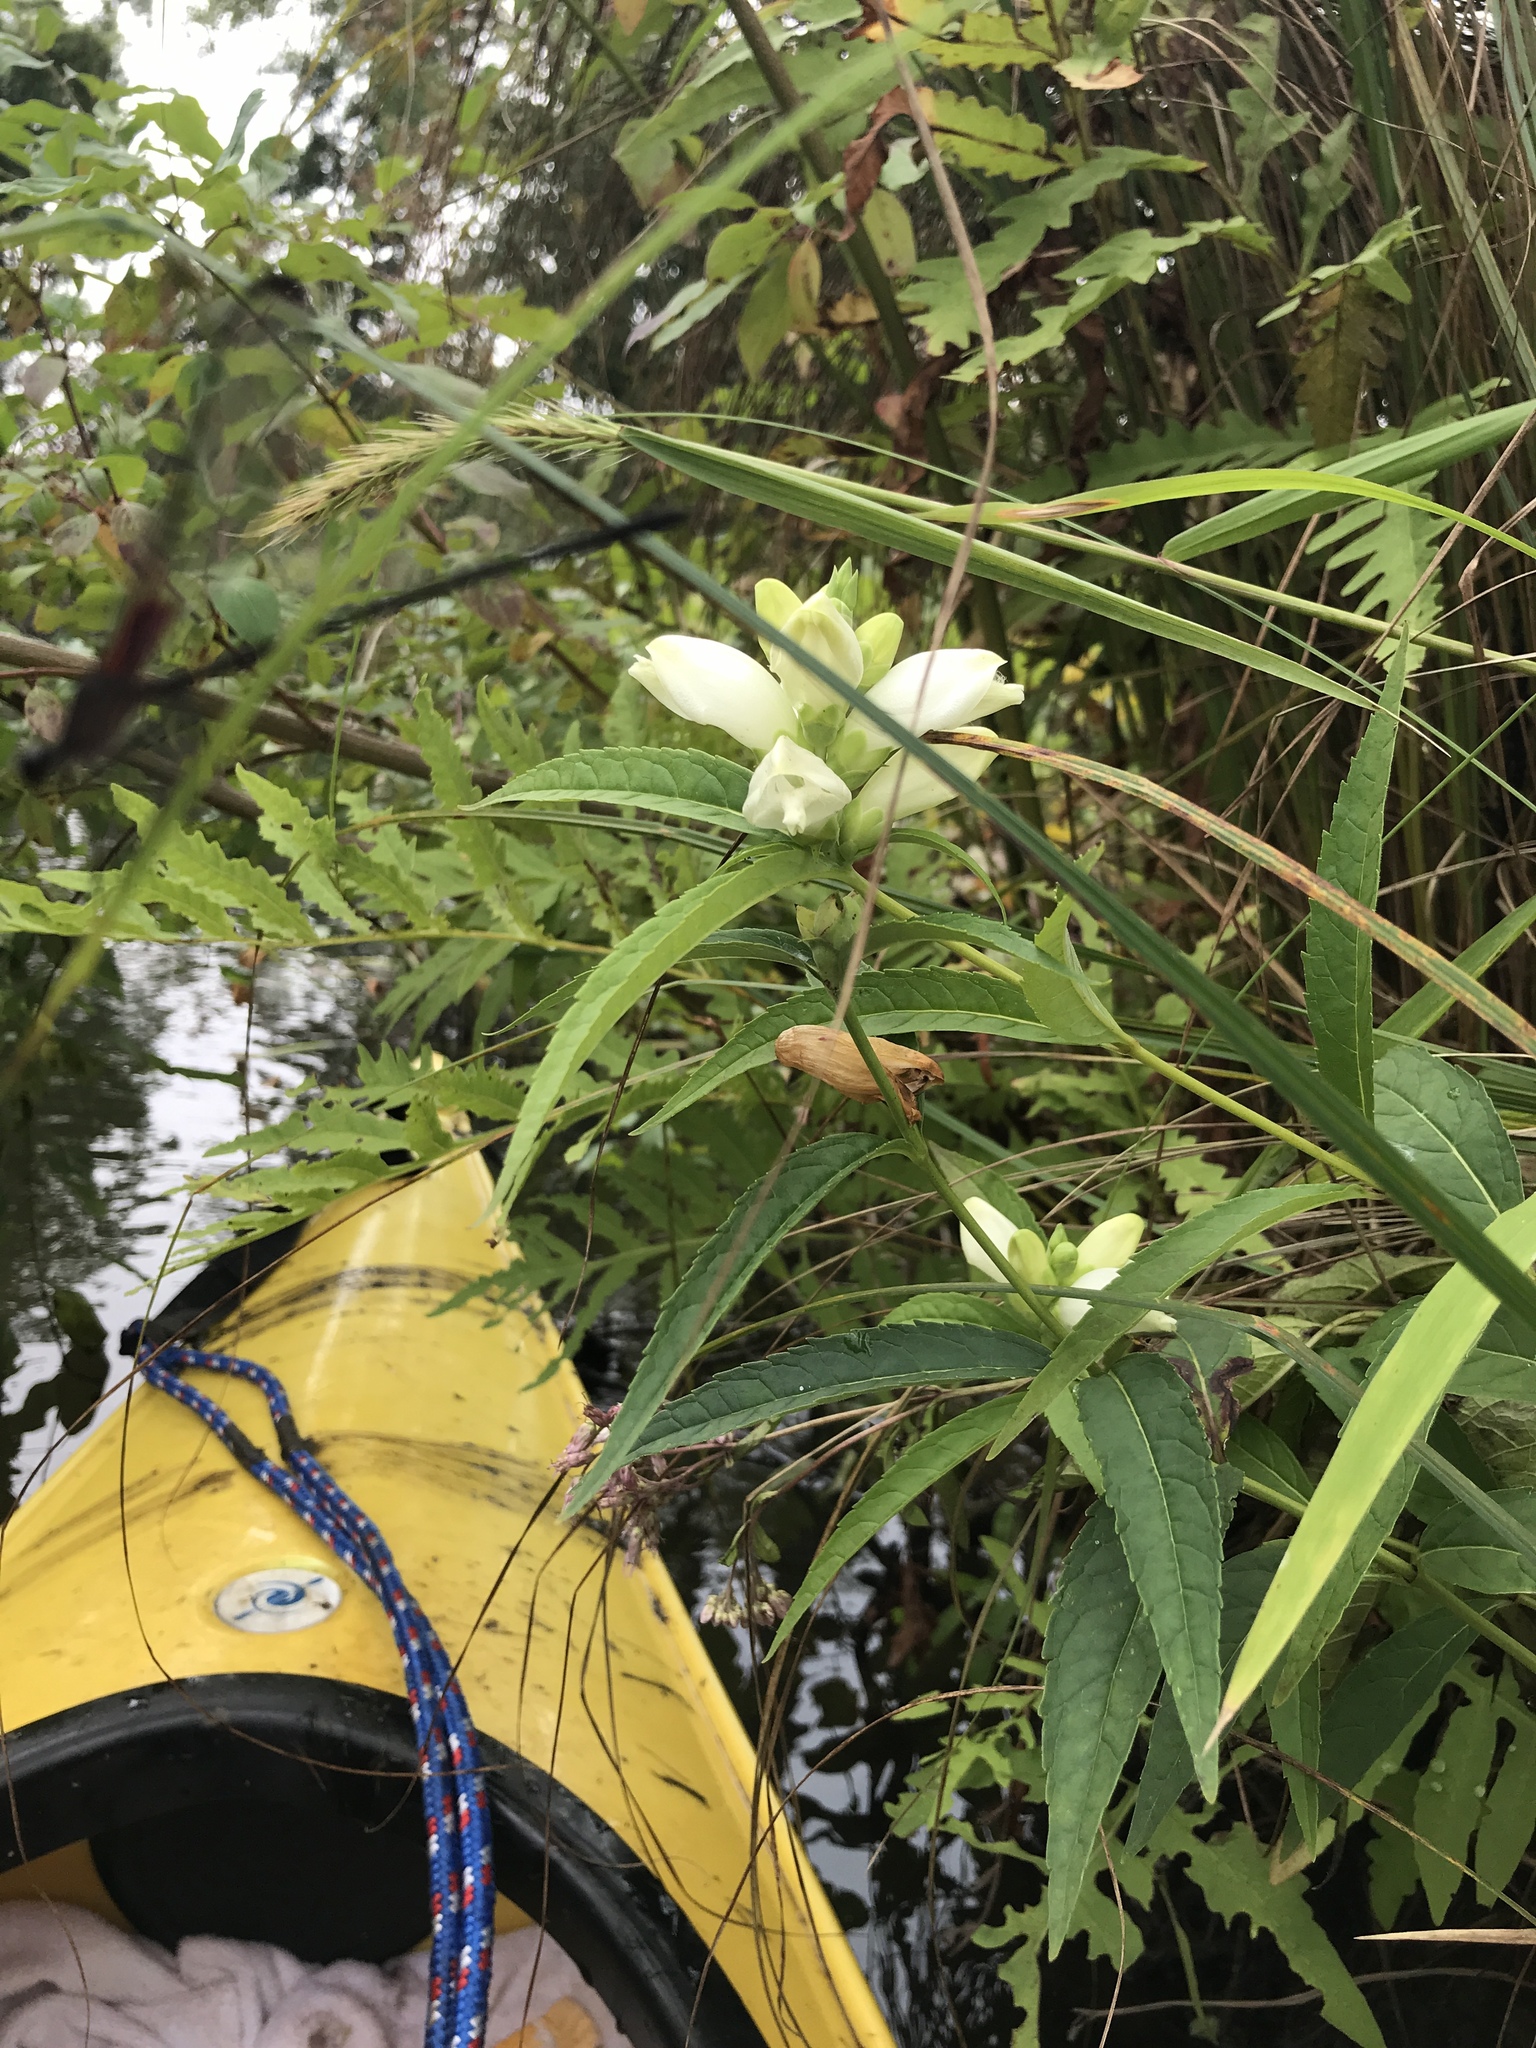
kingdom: Plantae
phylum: Tracheophyta
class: Magnoliopsida
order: Lamiales
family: Plantaginaceae
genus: Chelone
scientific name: Chelone glabra
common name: Snakehead
